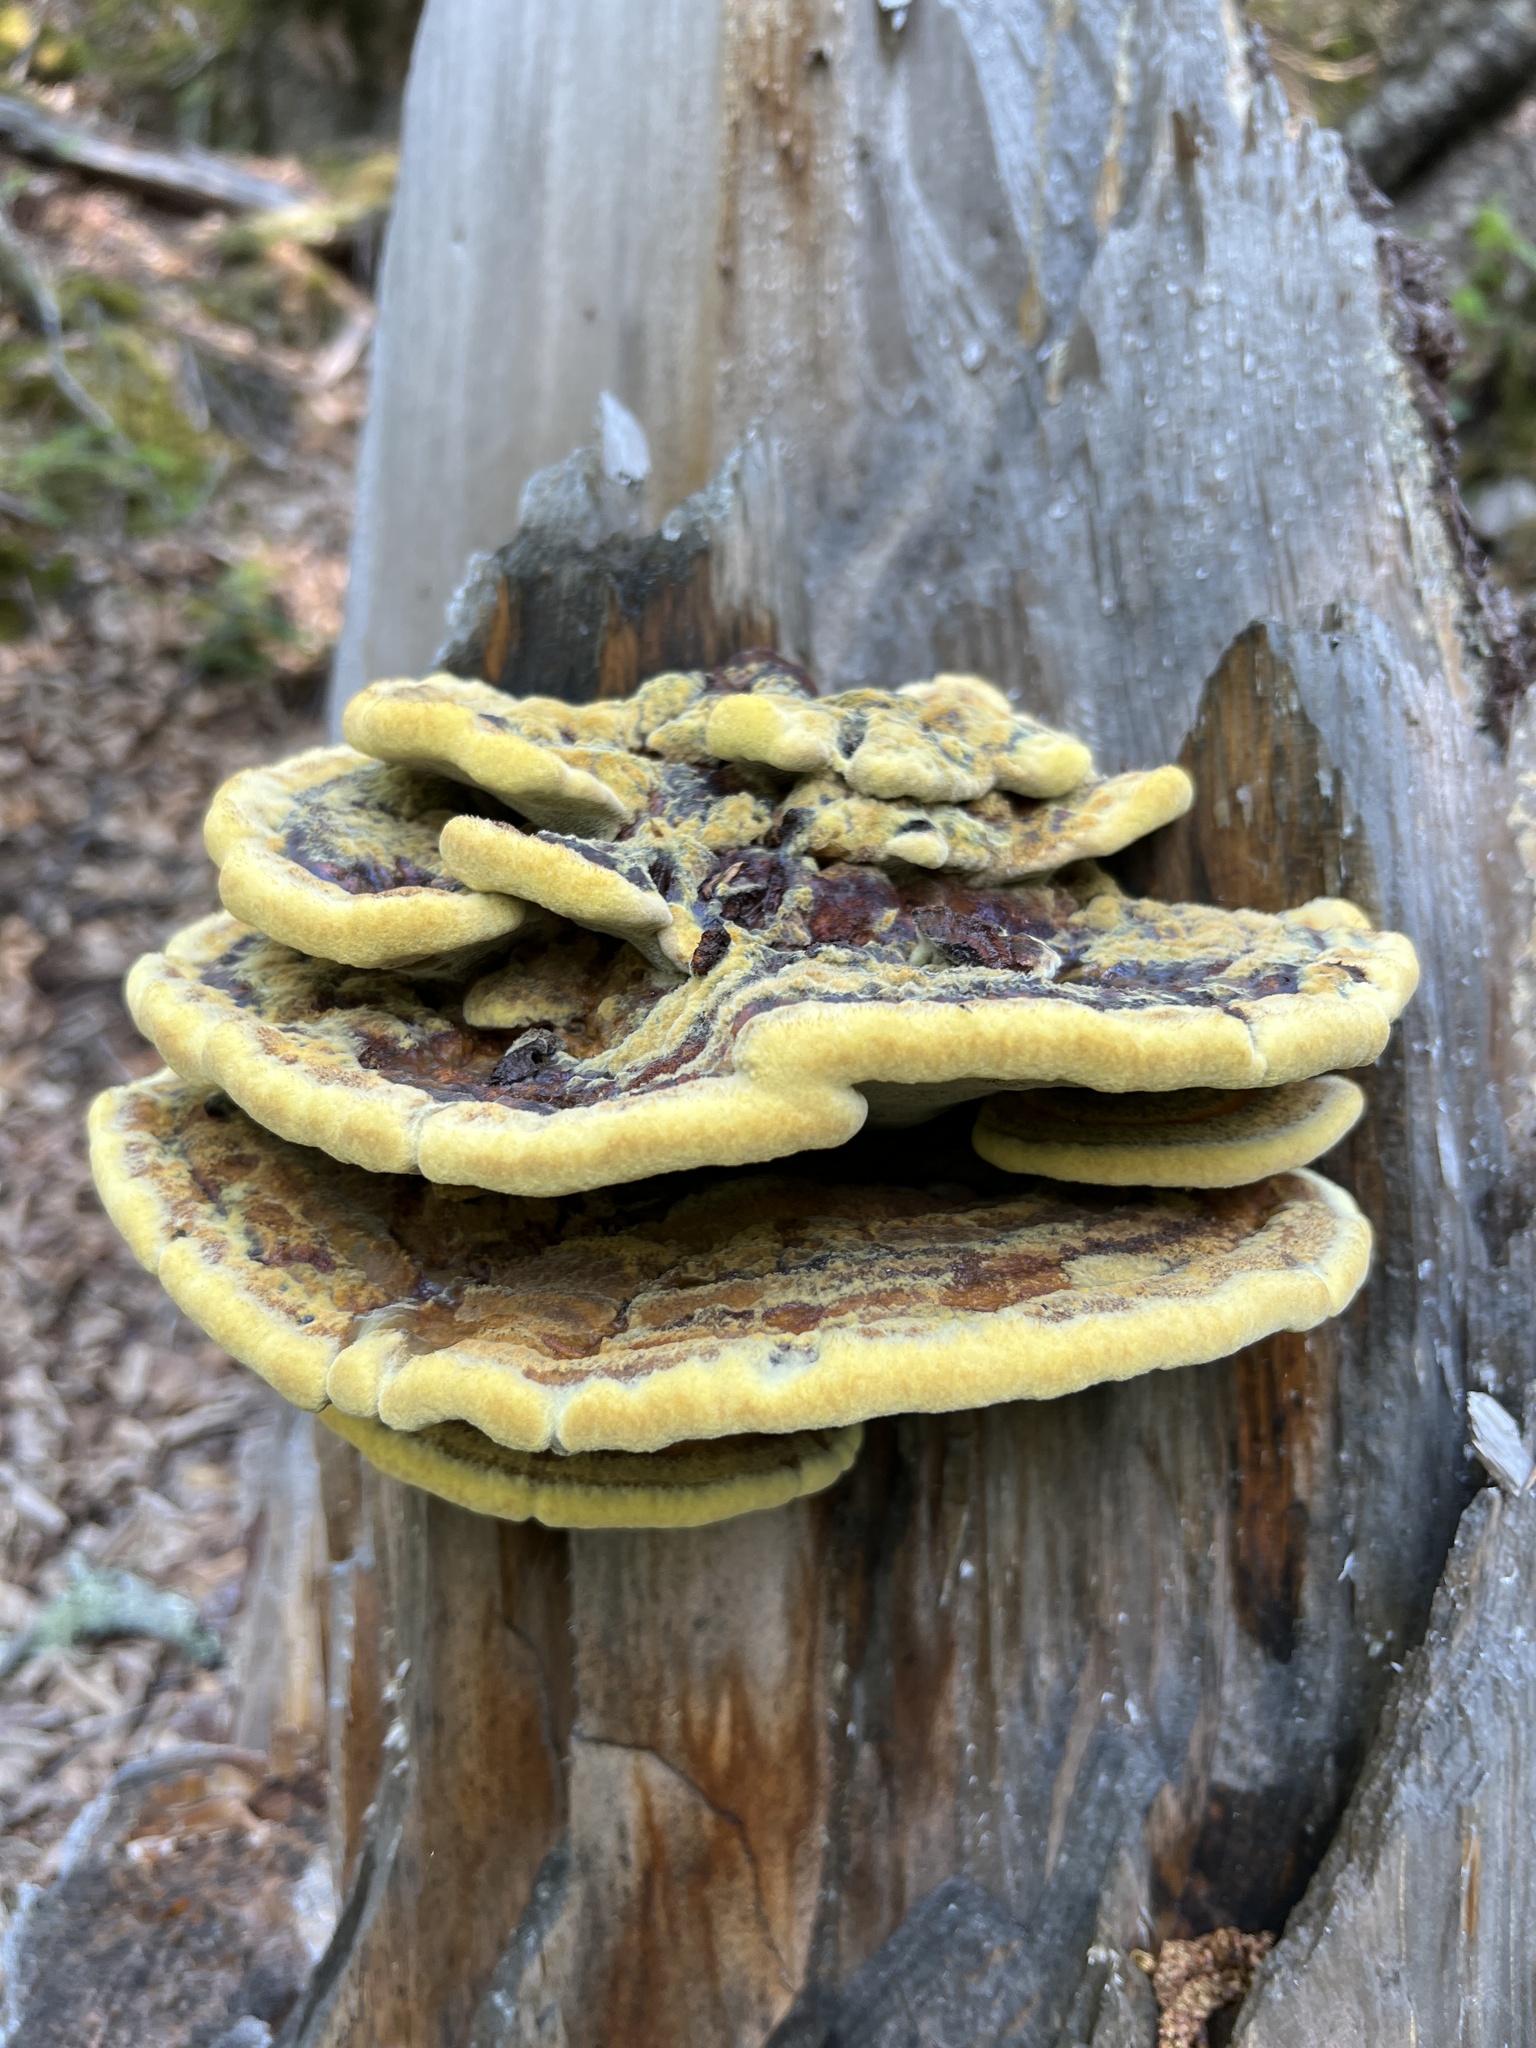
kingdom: Fungi
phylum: Basidiomycota
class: Agaricomycetes
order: Polyporales
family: Laetiporaceae
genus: Phaeolus
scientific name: Phaeolus schweinitzii
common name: Dyer's mazegill
